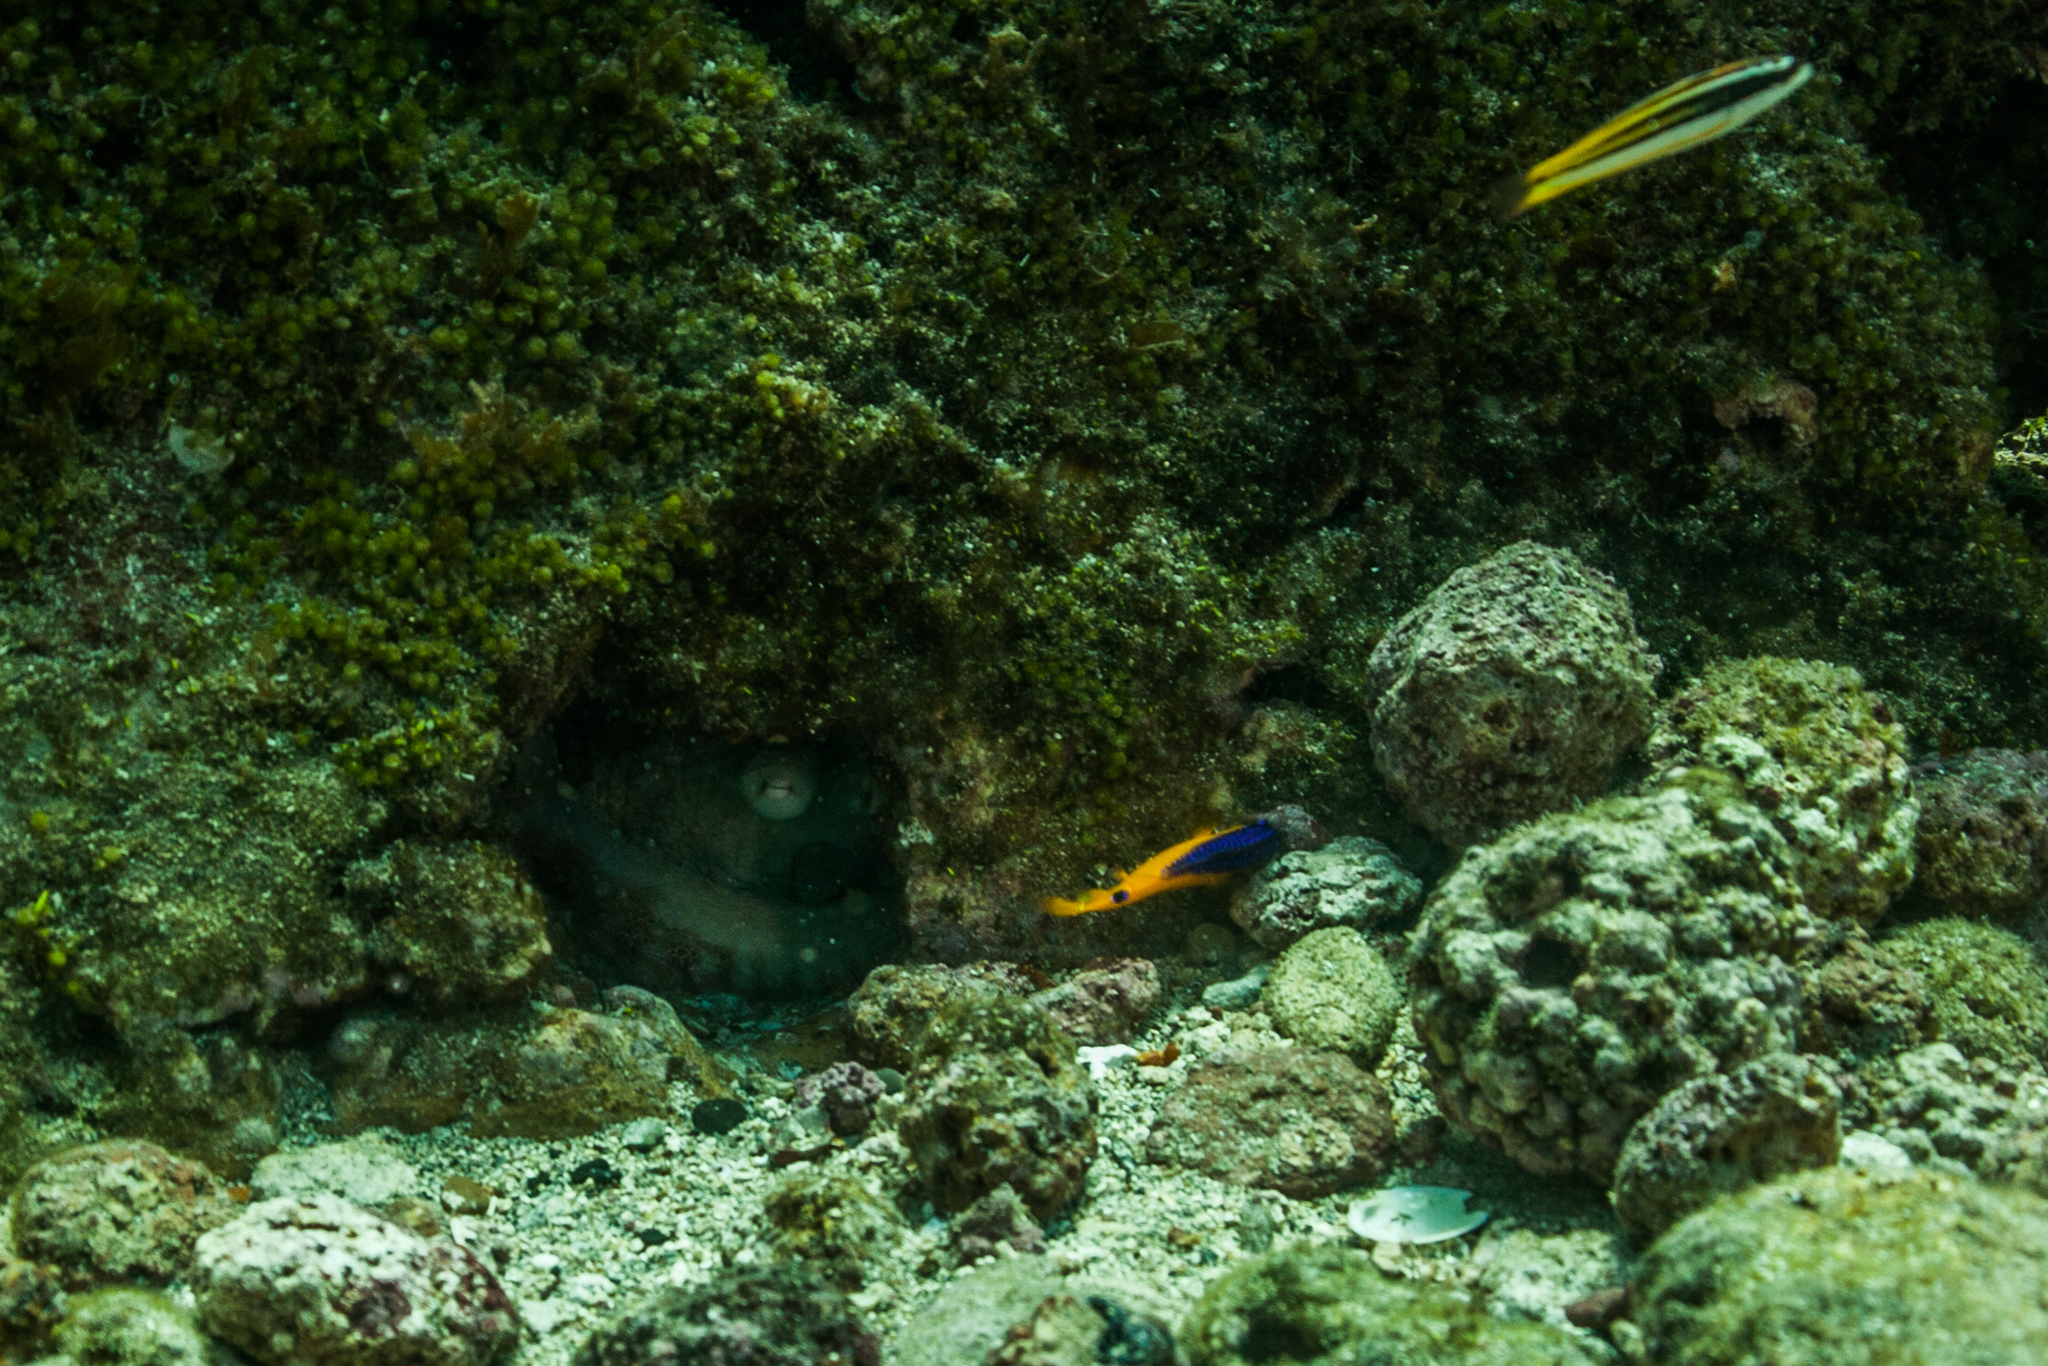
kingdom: Animalia
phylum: Mollusca
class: Cephalopoda
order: Octopoda
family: Octopodidae
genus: Octopus
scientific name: Octopus insularis
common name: Brazil reef octopus
